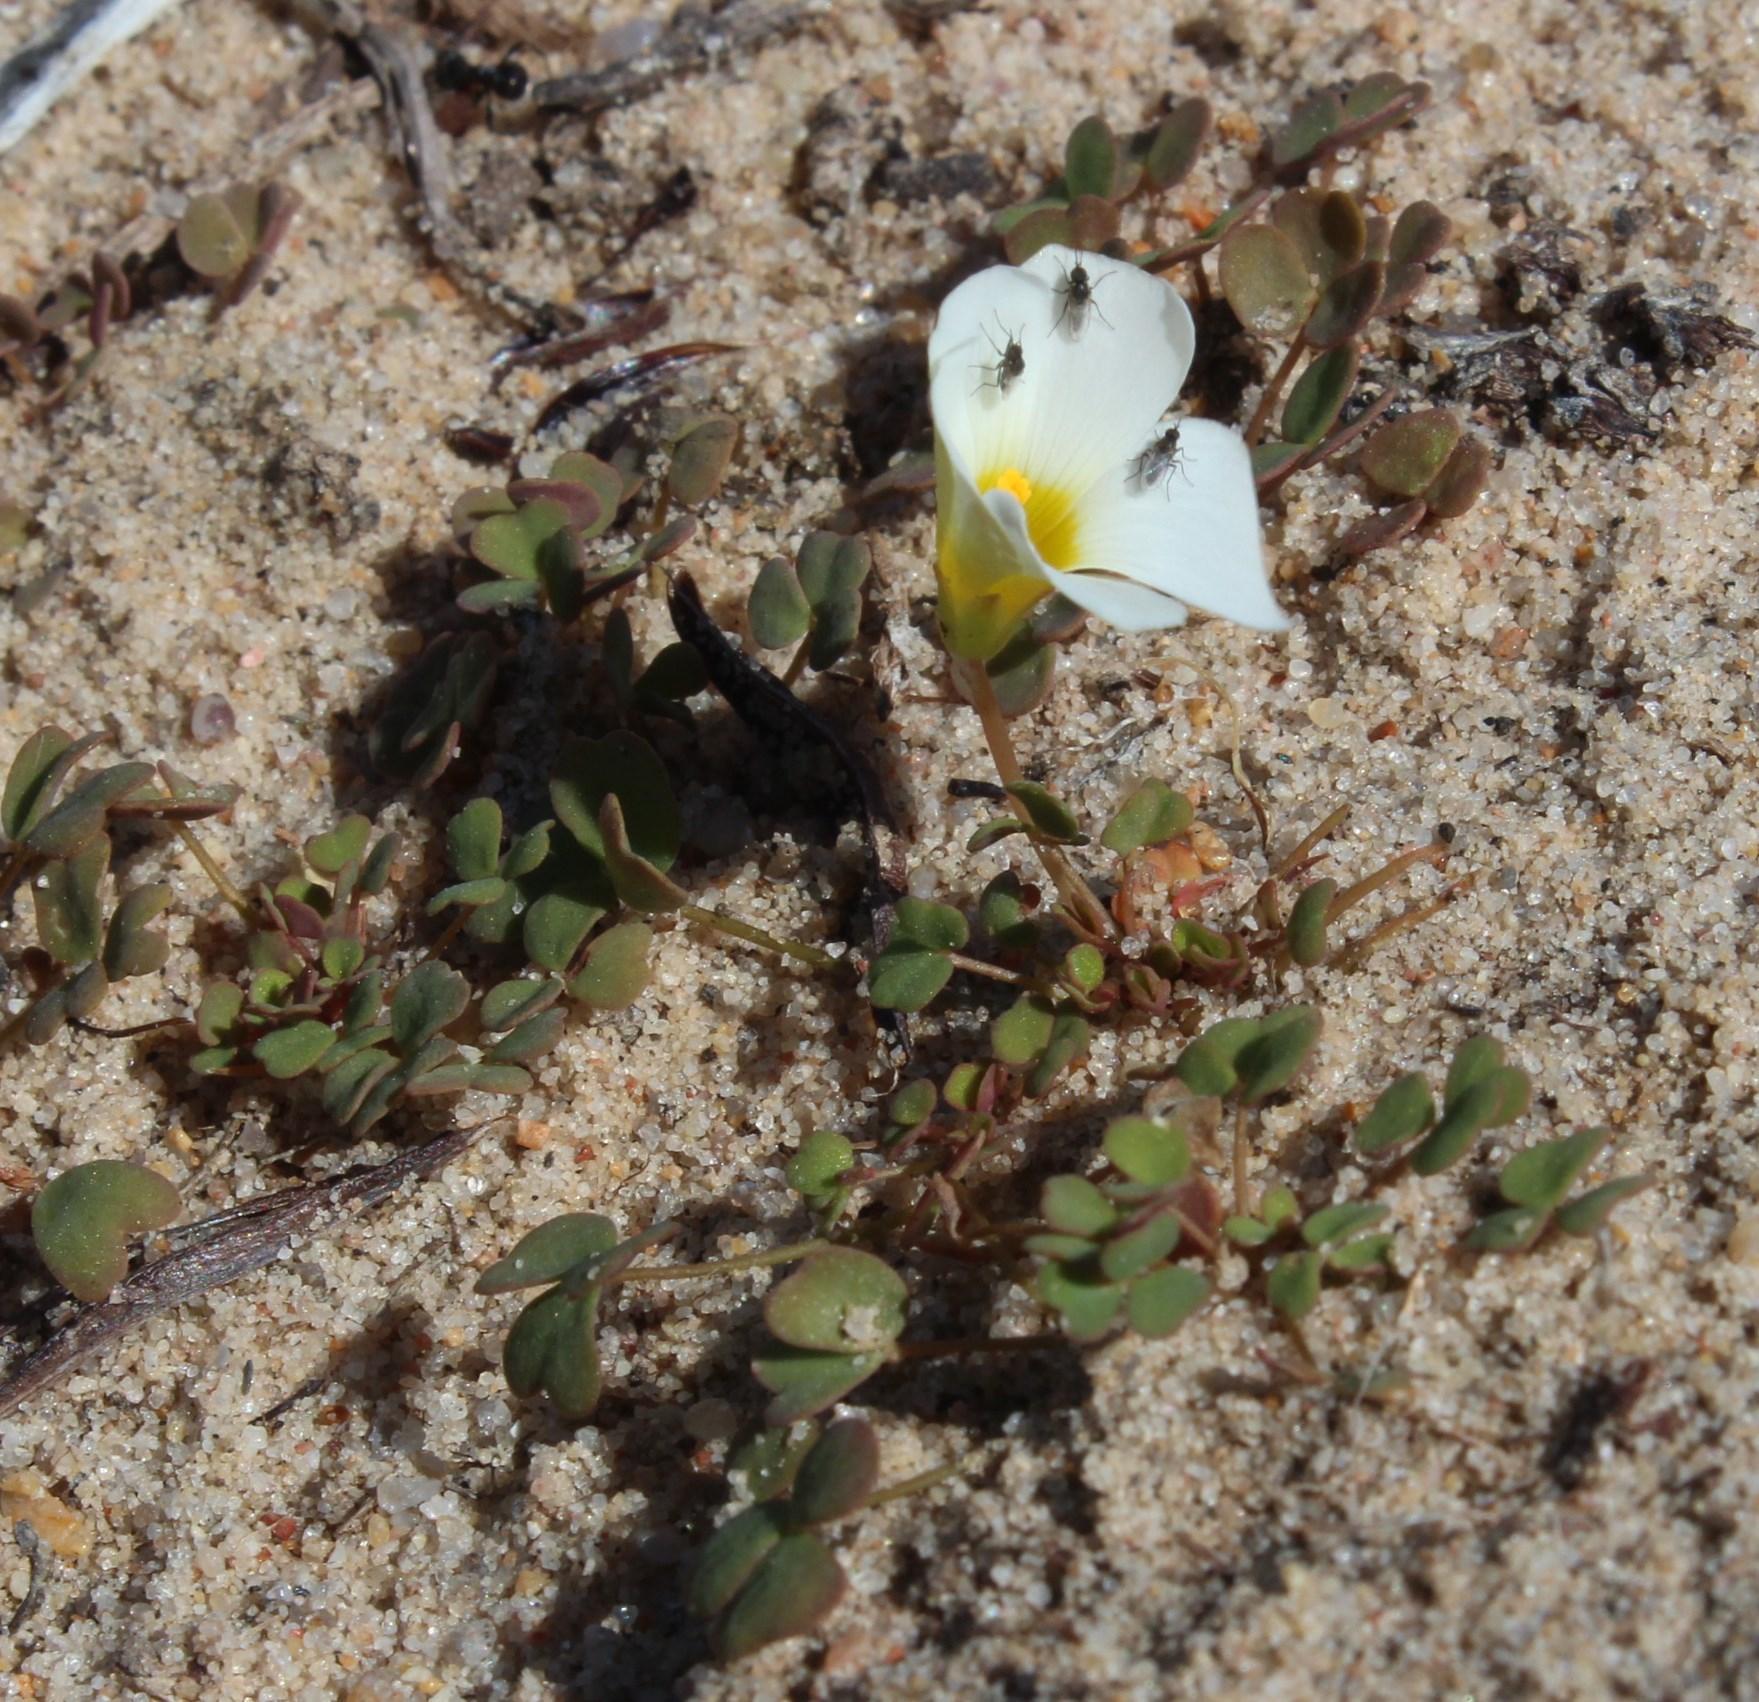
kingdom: Plantae
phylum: Tracheophyta
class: Magnoliopsida
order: Oxalidales
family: Oxalidaceae
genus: Oxalis
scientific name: Oxalis annae
